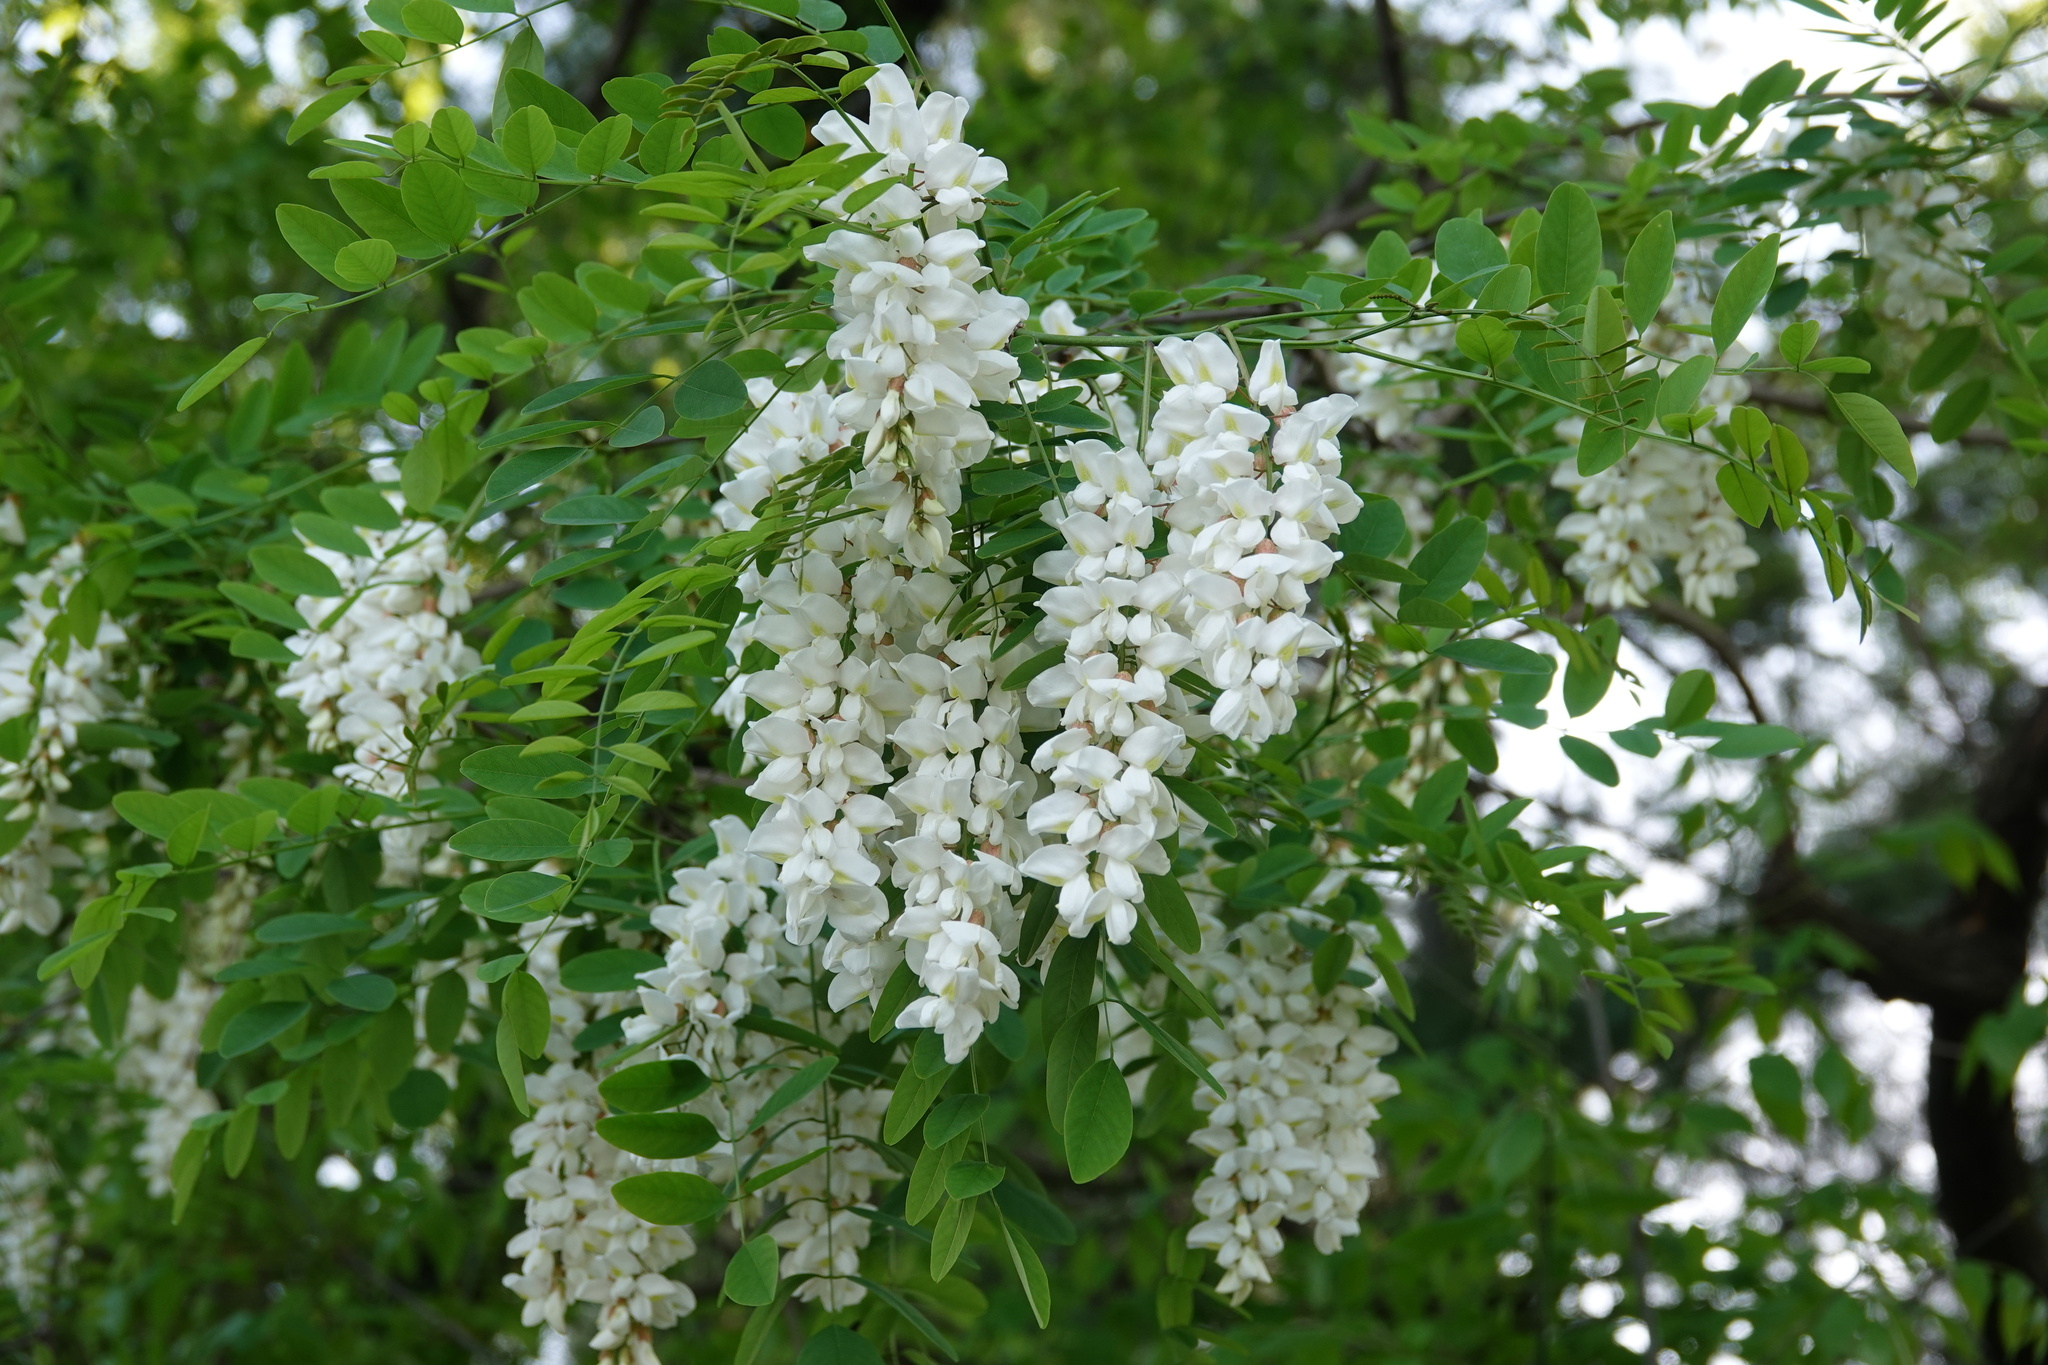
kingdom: Plantae
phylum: Tracheophyta
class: Magnoliopsida
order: Fabales
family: Fabaceae
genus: Robinia
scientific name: Robinia pseudoacacia
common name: Black locust
